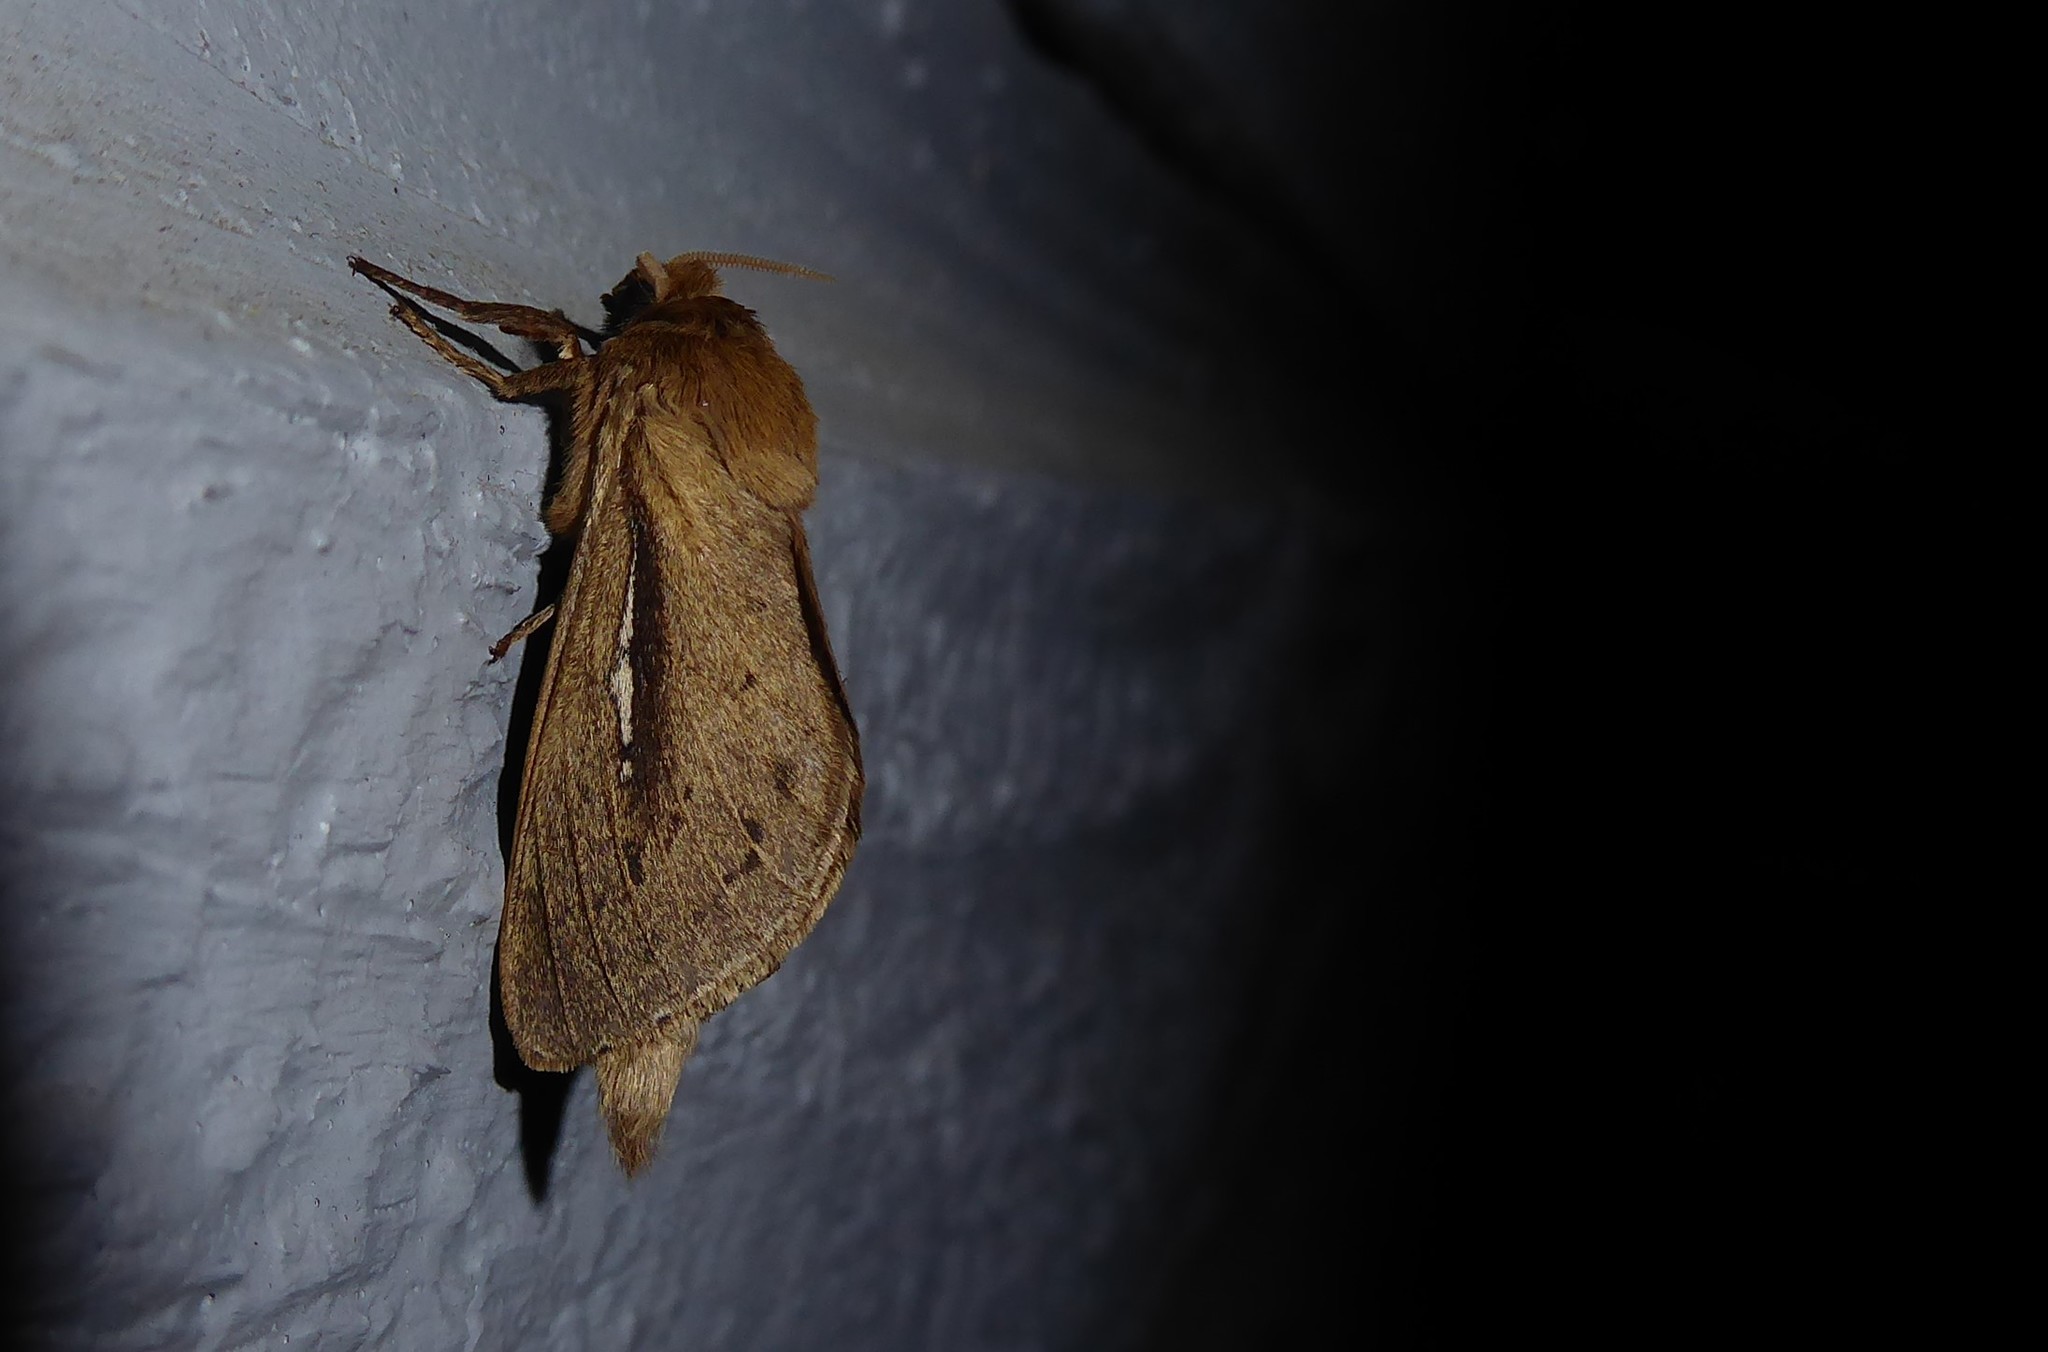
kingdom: Animalia
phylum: Arthropoda
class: Insecta
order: Lepidoptera
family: Hepialidae
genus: Wiseana
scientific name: Wiseana umbraculatus
